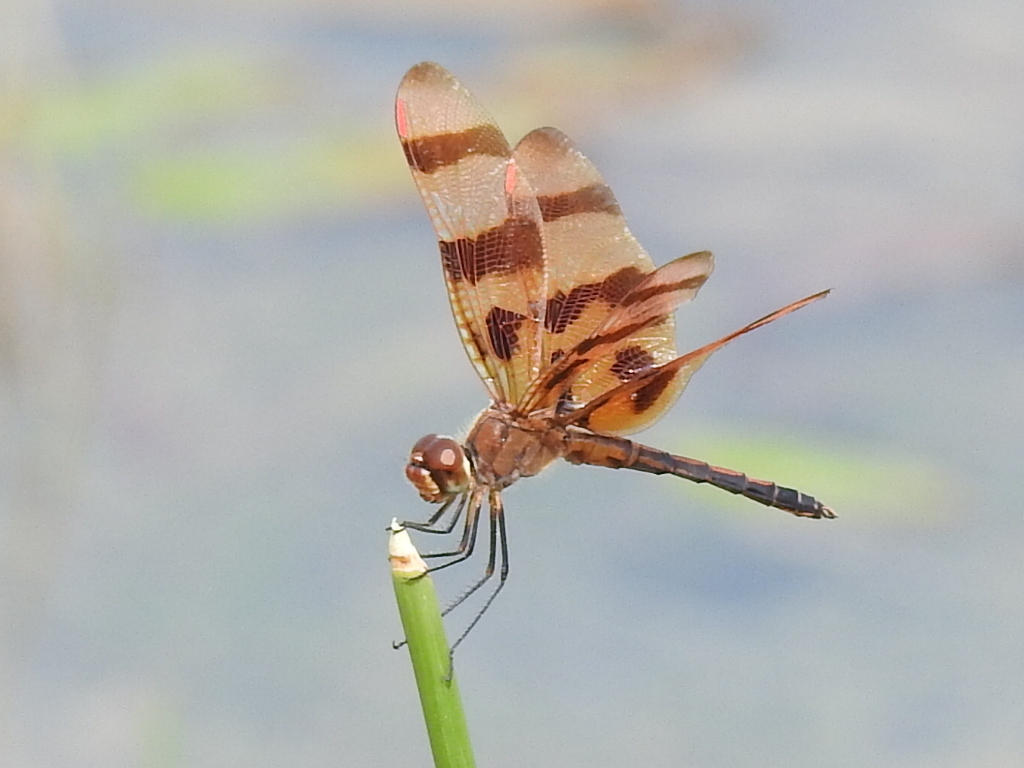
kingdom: Animalia
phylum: Arthropoda
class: Insecta
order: Odonata
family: Libellulidae
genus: Celithemis
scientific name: Celithemis eponina
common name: Halloween pennant
